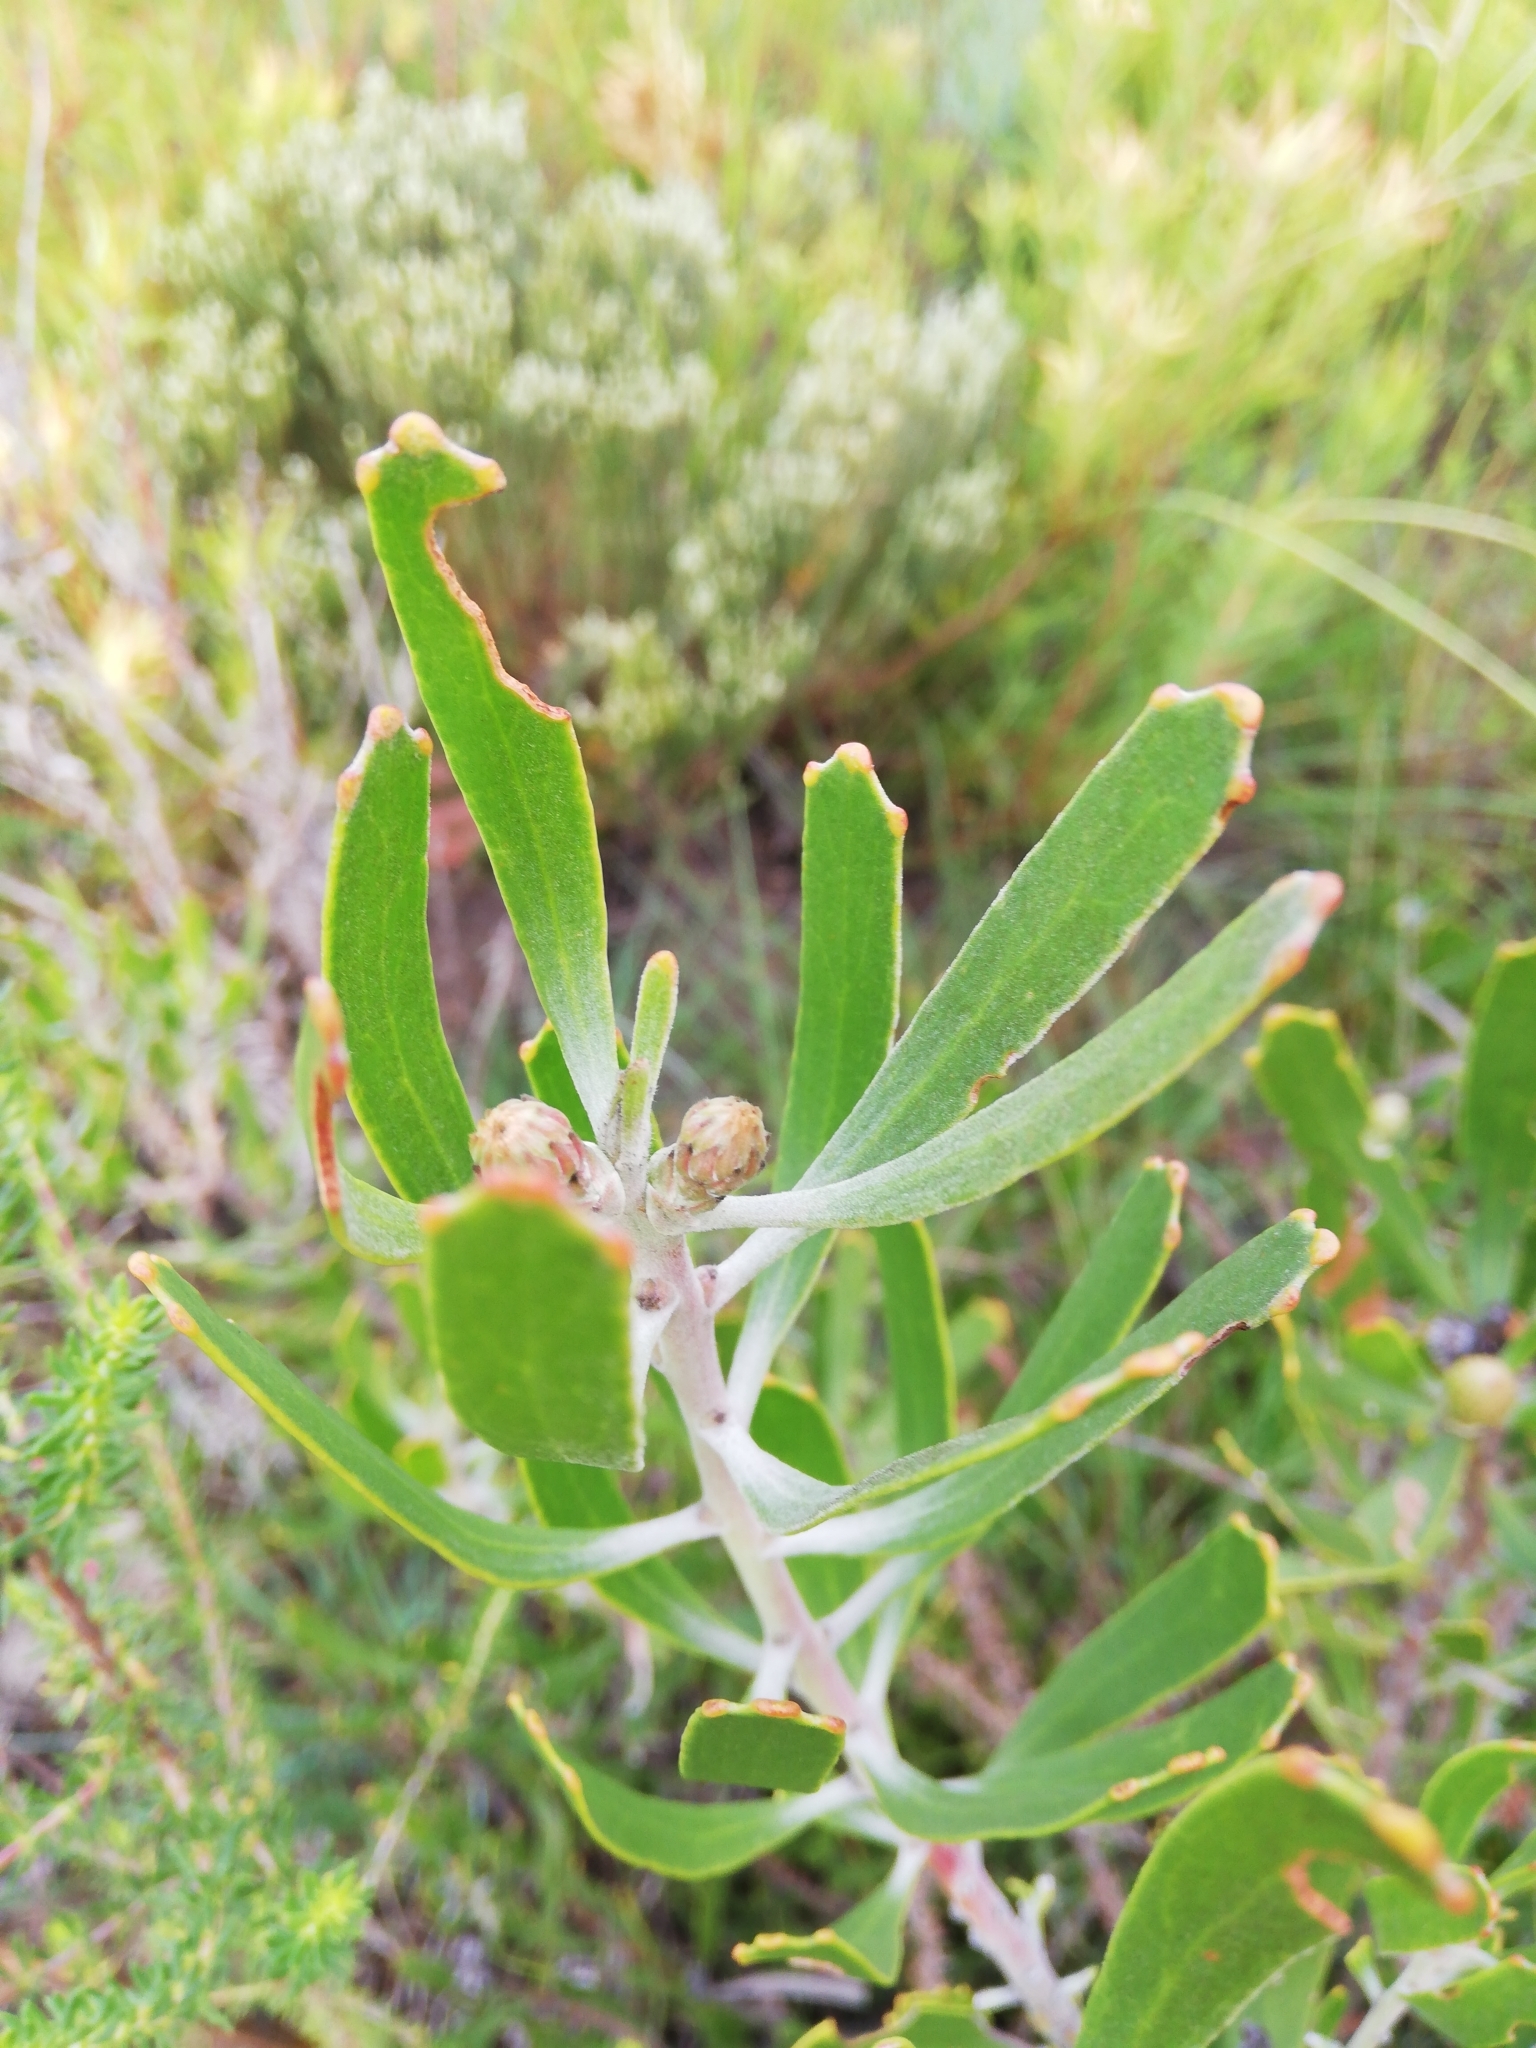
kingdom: Plantae
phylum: Tracheophyta
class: Magnoliopsida
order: Proteales
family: Proteaceae
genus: Leucospermum
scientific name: Leucospermum cuneiforme
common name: Common pincushion
